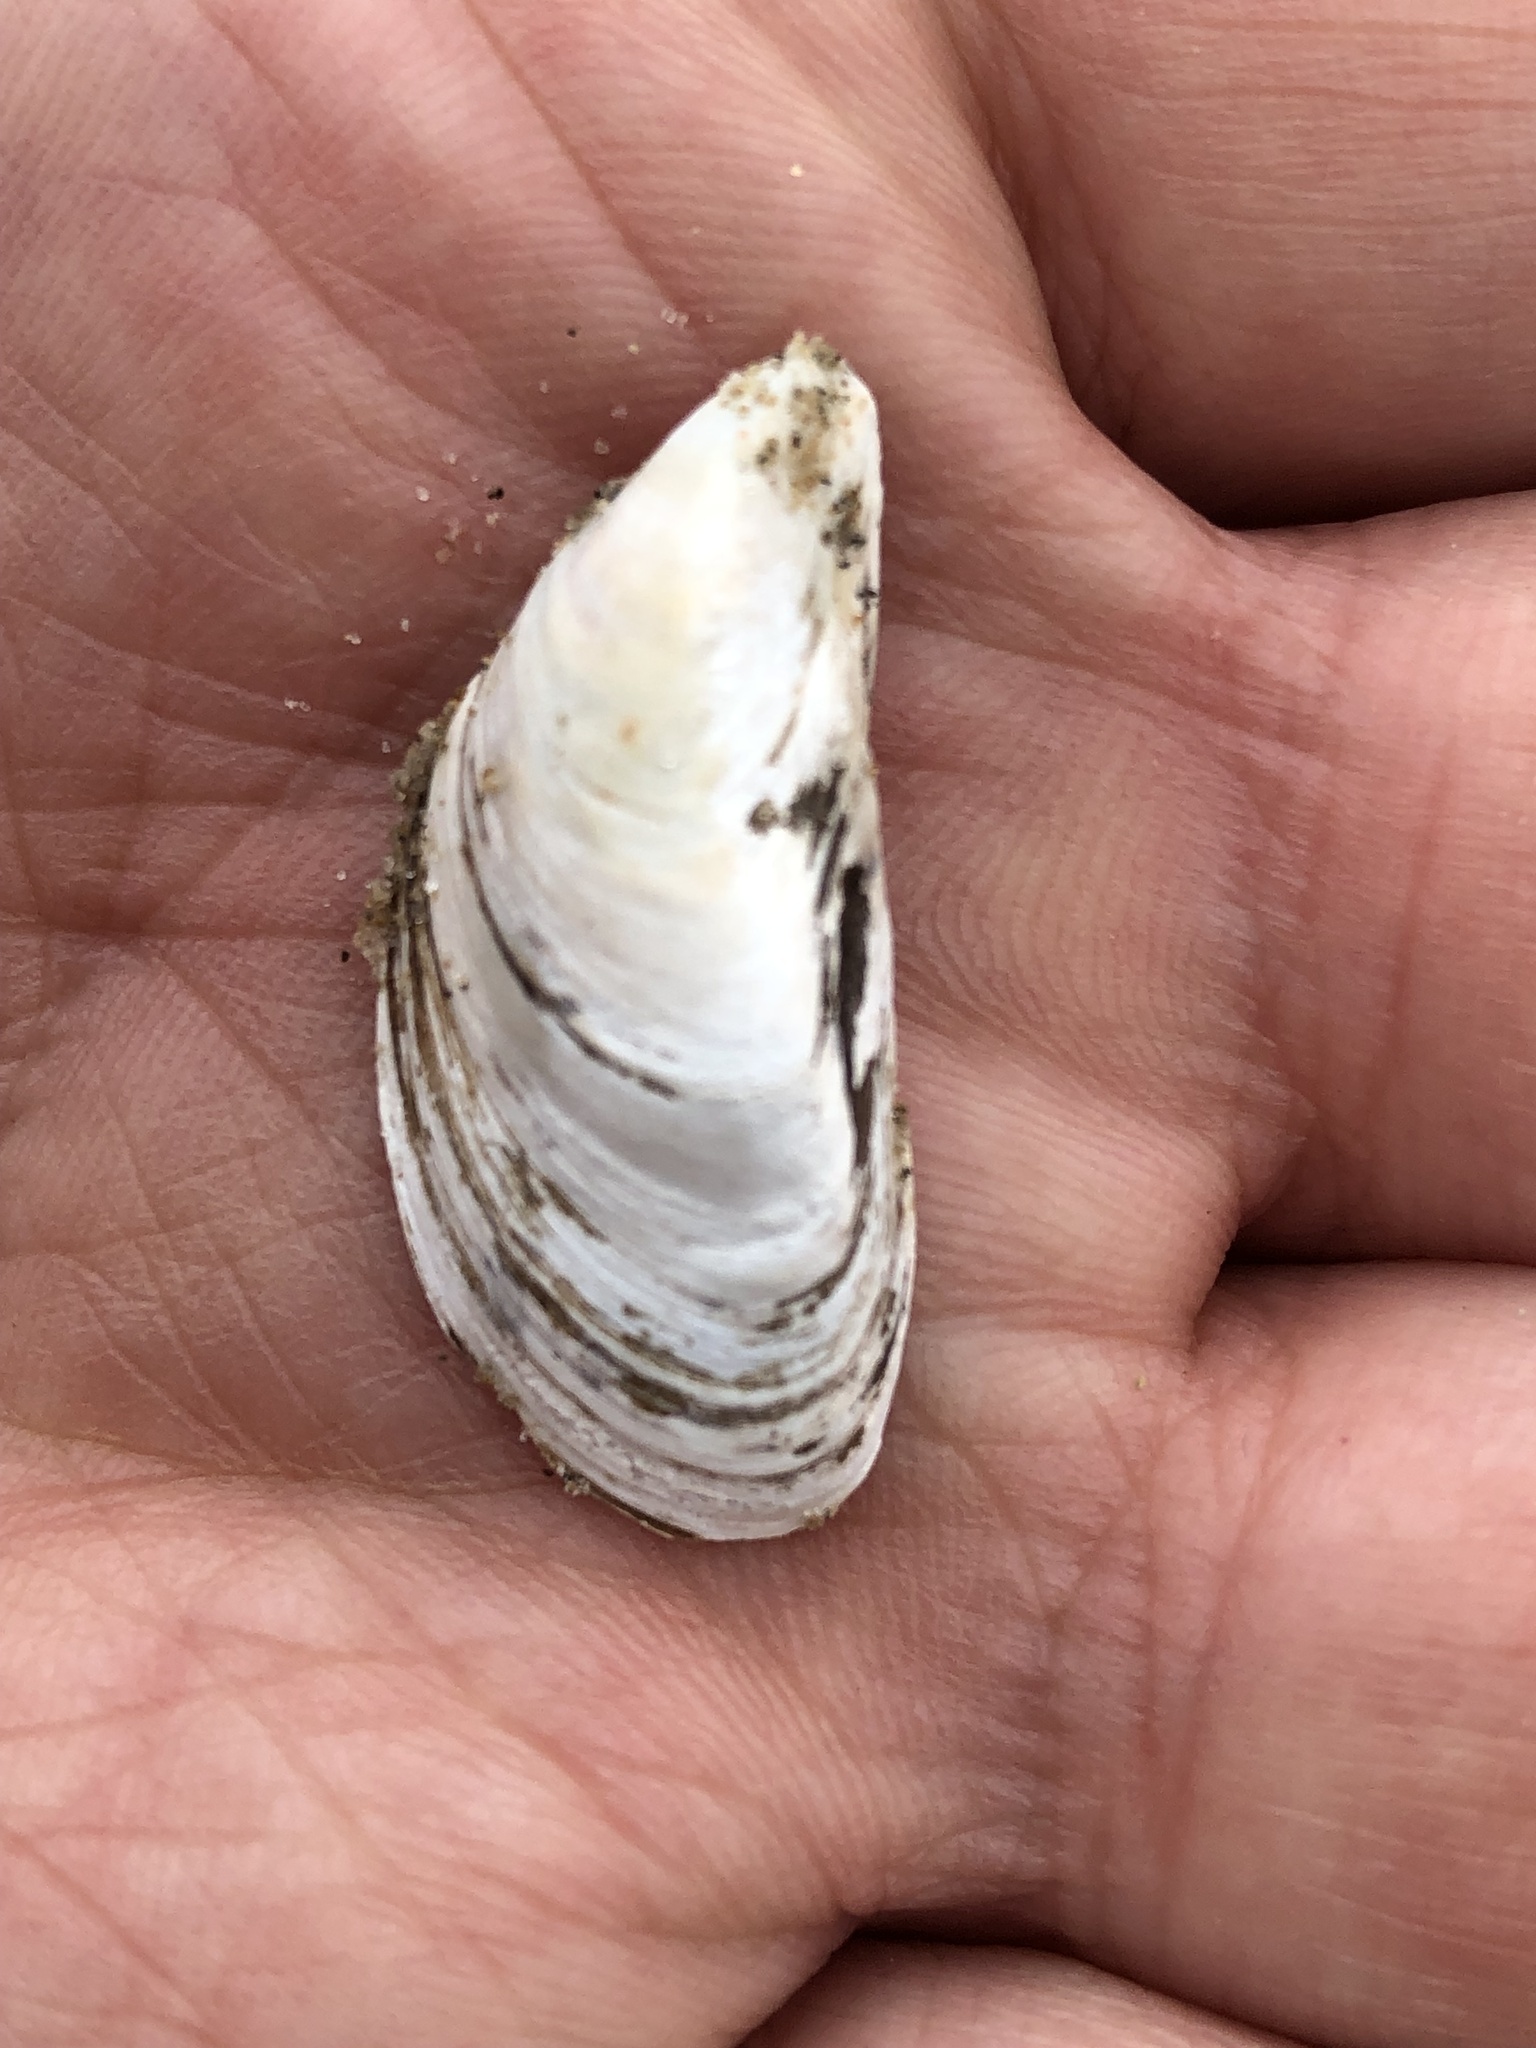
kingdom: Animalia
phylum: Mollusca
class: Bivalvia
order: Myida
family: Dreissenidae
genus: Dreissena
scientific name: Dreissena bugensis
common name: Quagga mussel
